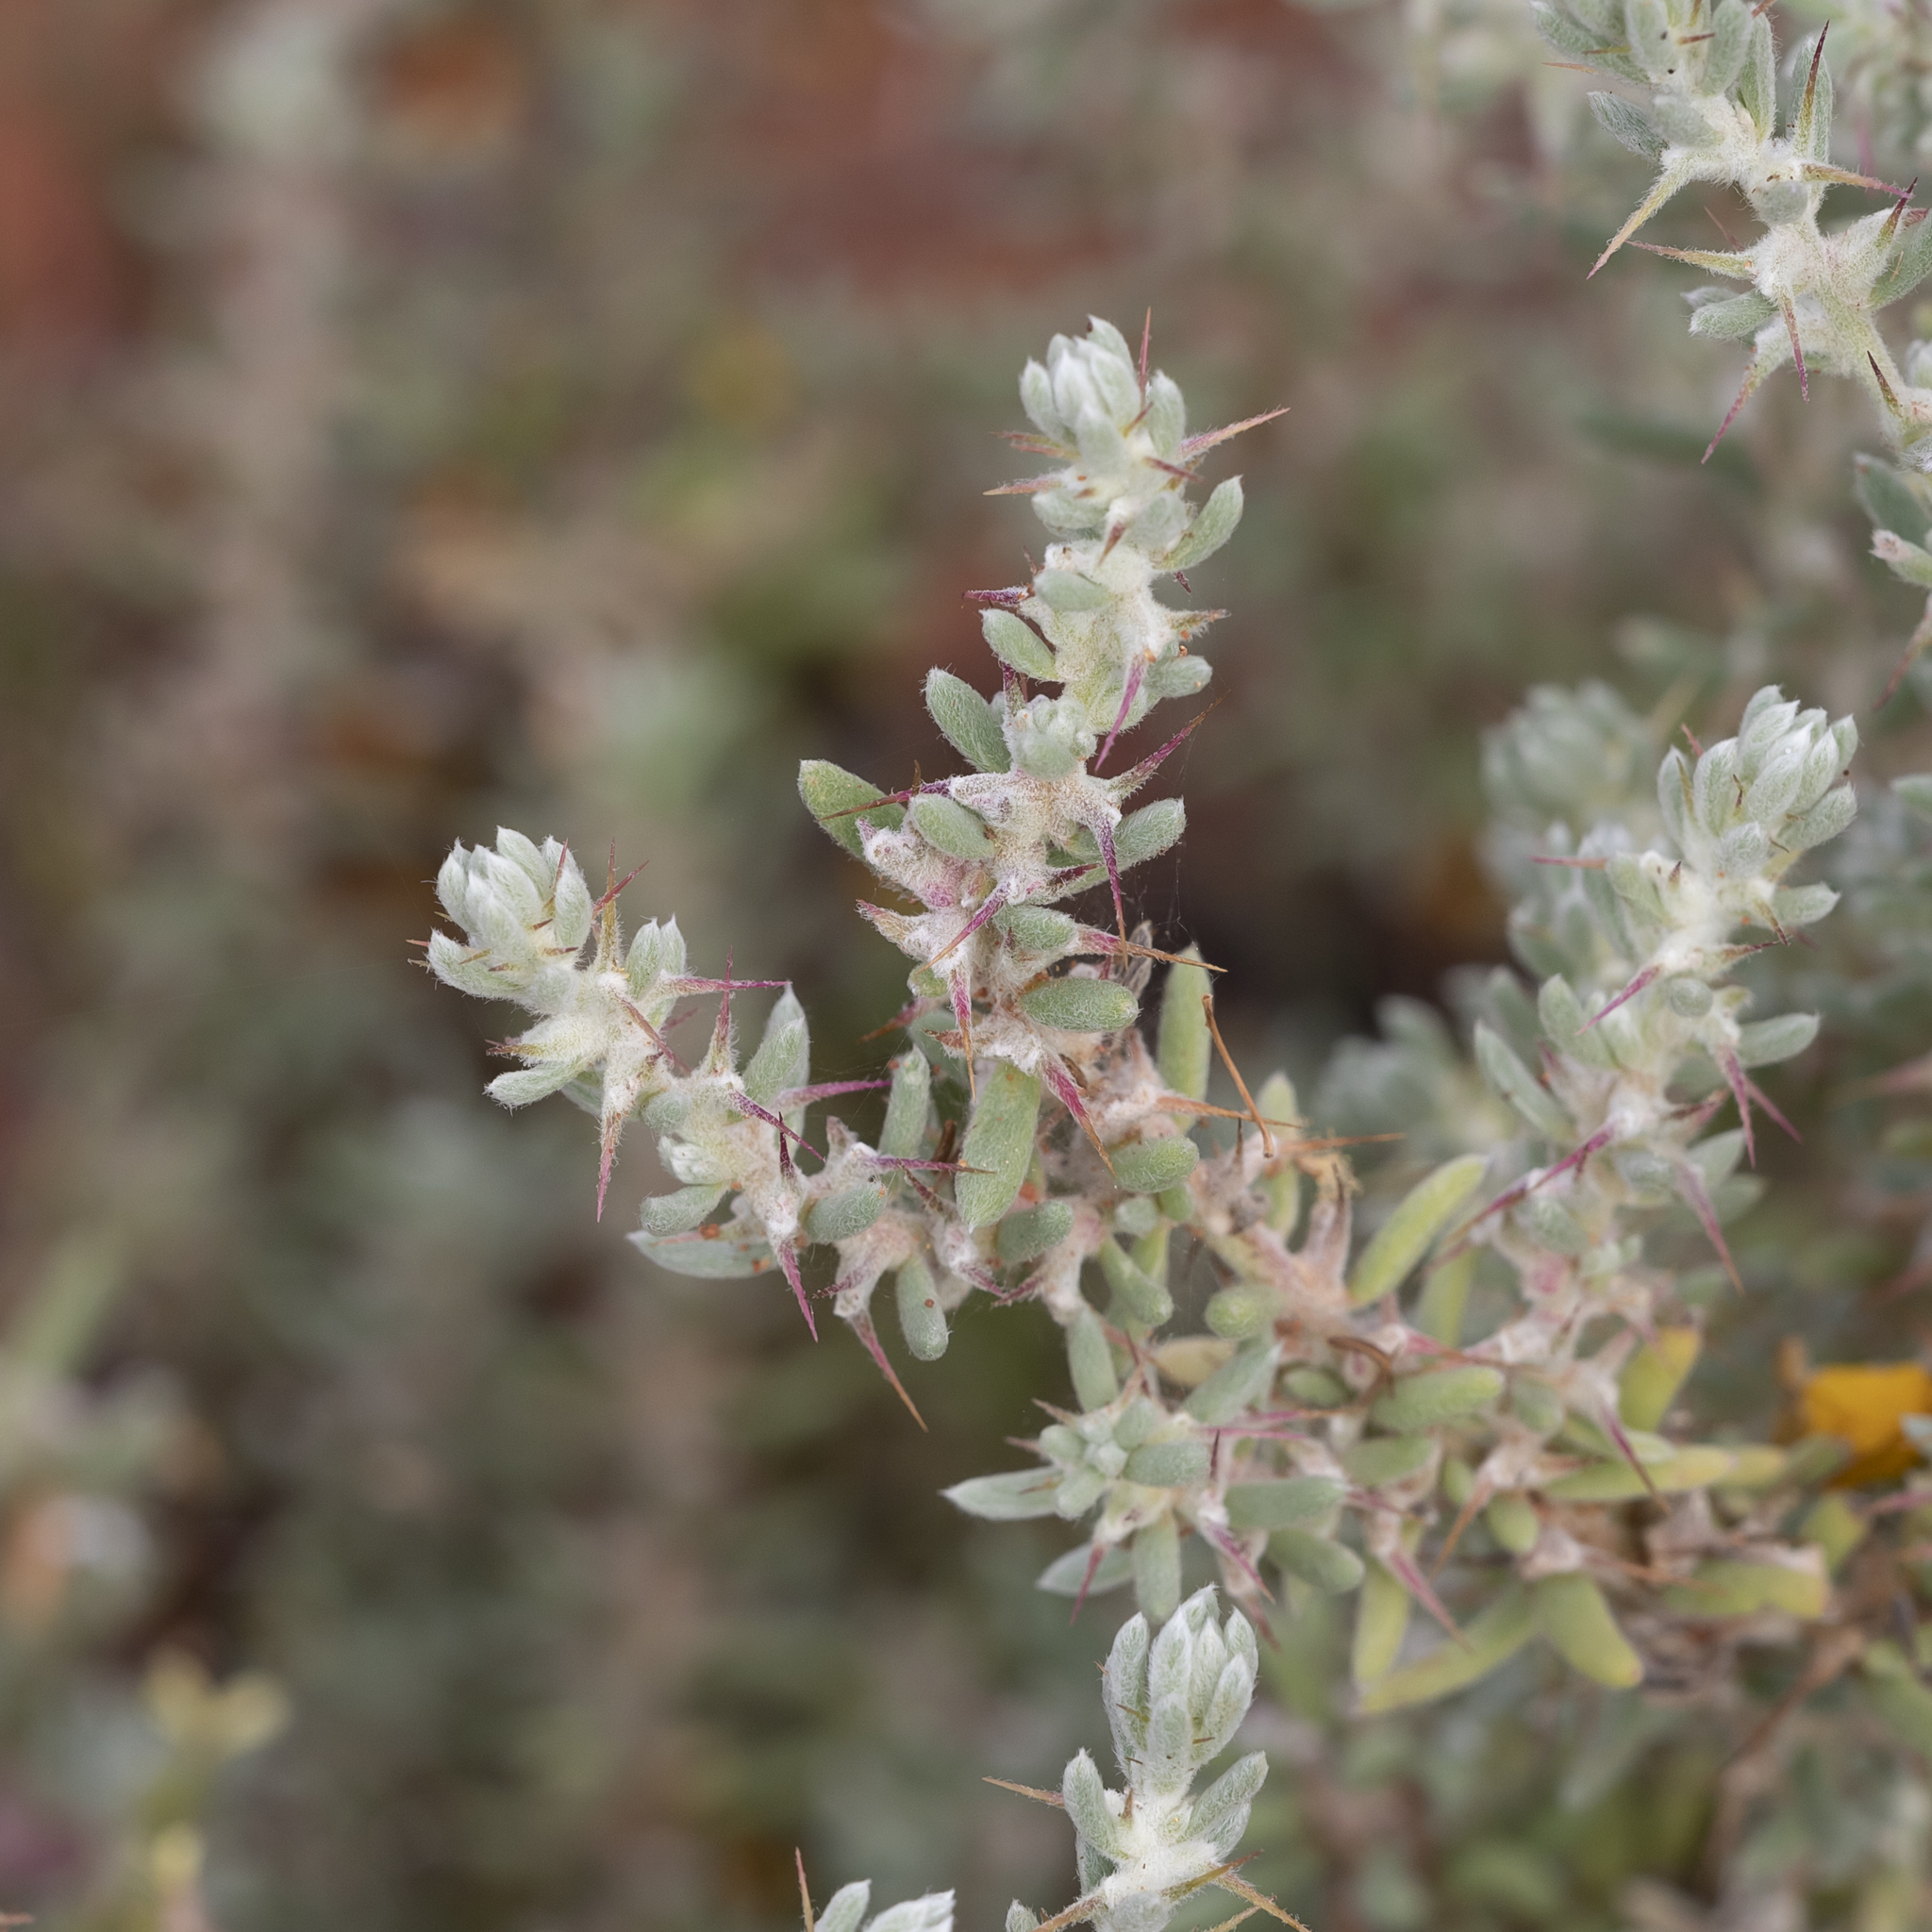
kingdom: Plantae
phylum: Tracheophyta
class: Magnoliopsida
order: Caryophyllales
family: Amaranthaceae
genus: Sclerolaena
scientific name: Sclerolaena obliquicuspis
